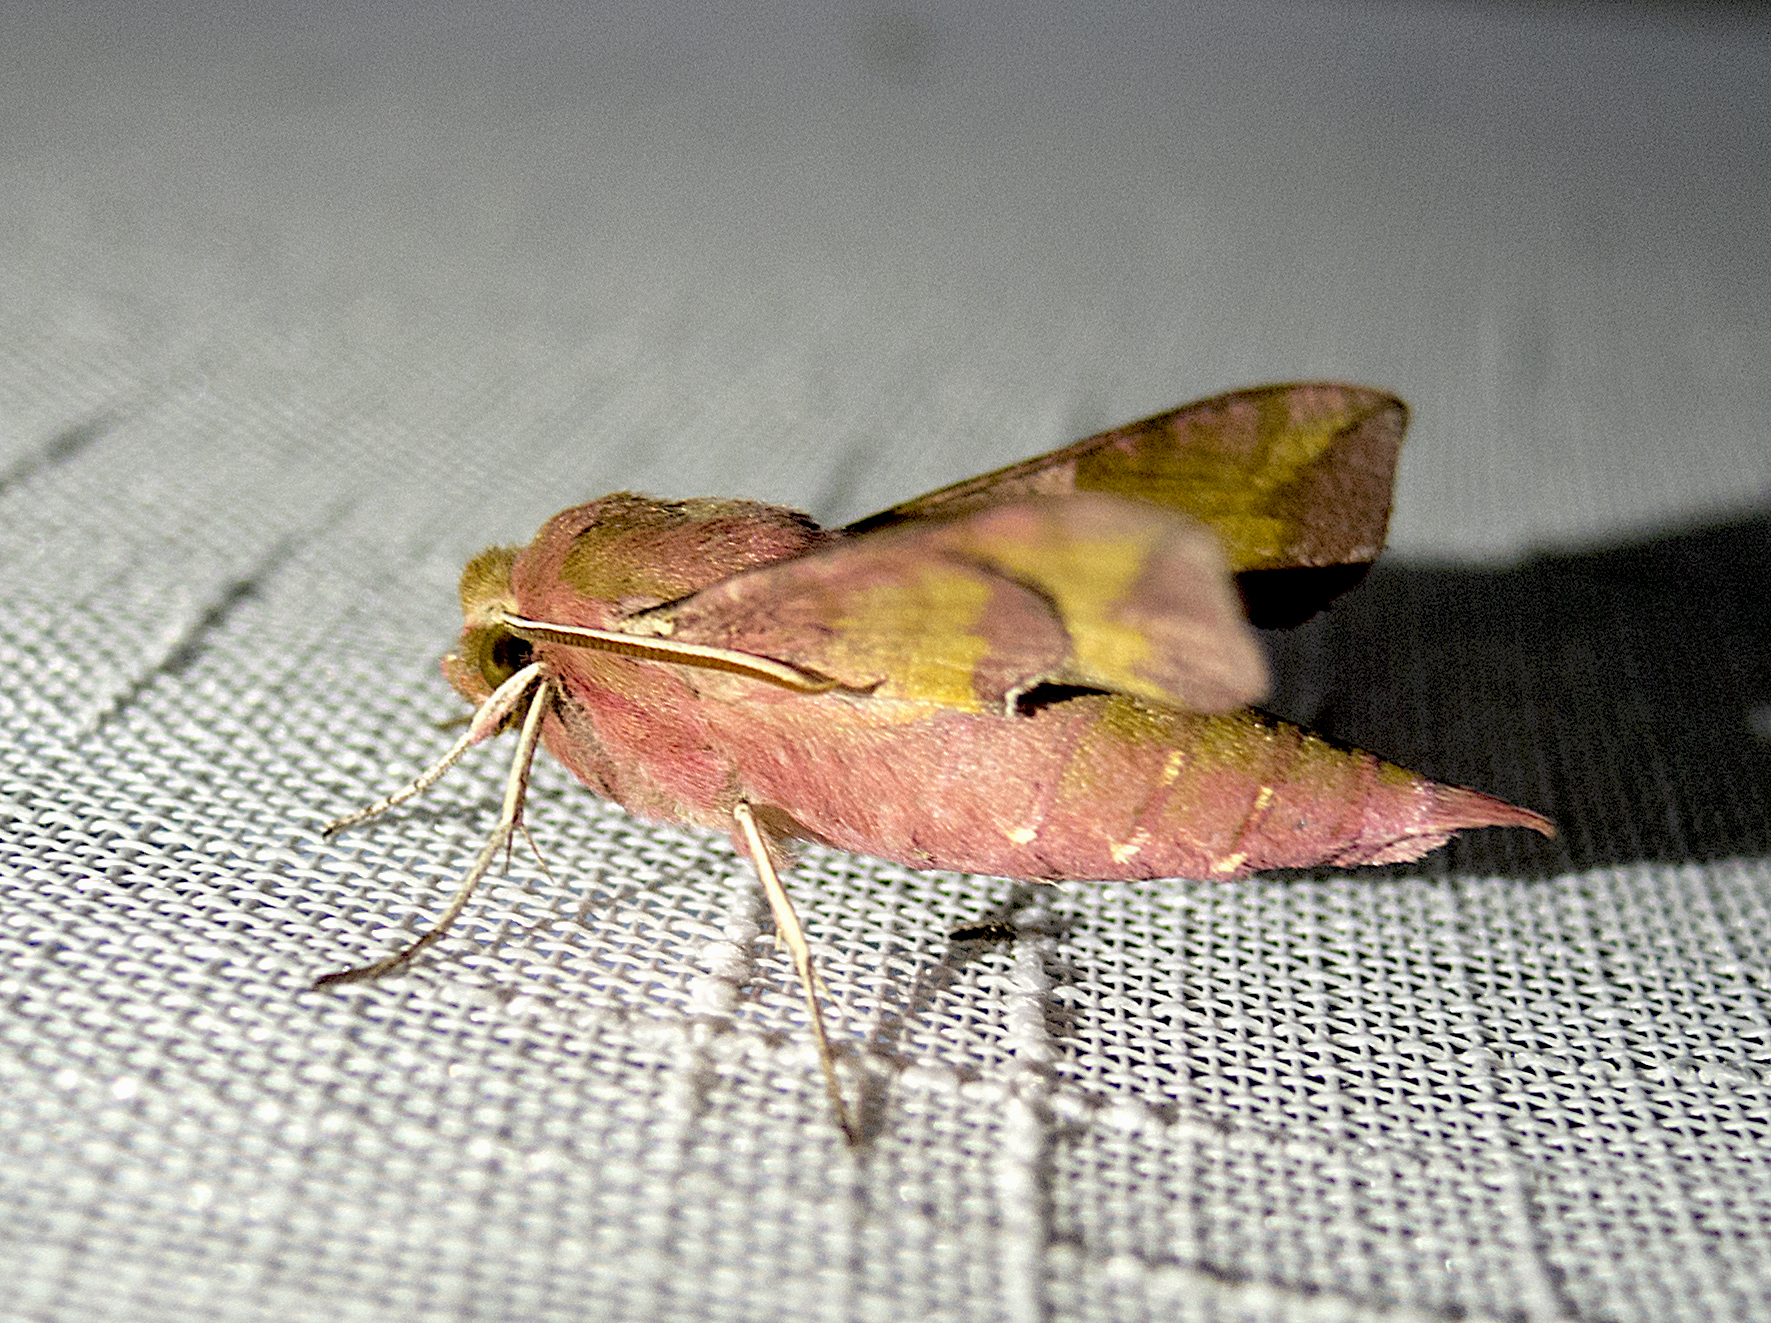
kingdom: Animalia
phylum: Arthropoda
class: Insecta
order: Lepidoptera
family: Sphingidae
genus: Deilephila
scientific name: Deilephila porcellus
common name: Small elephant hawk-moth
